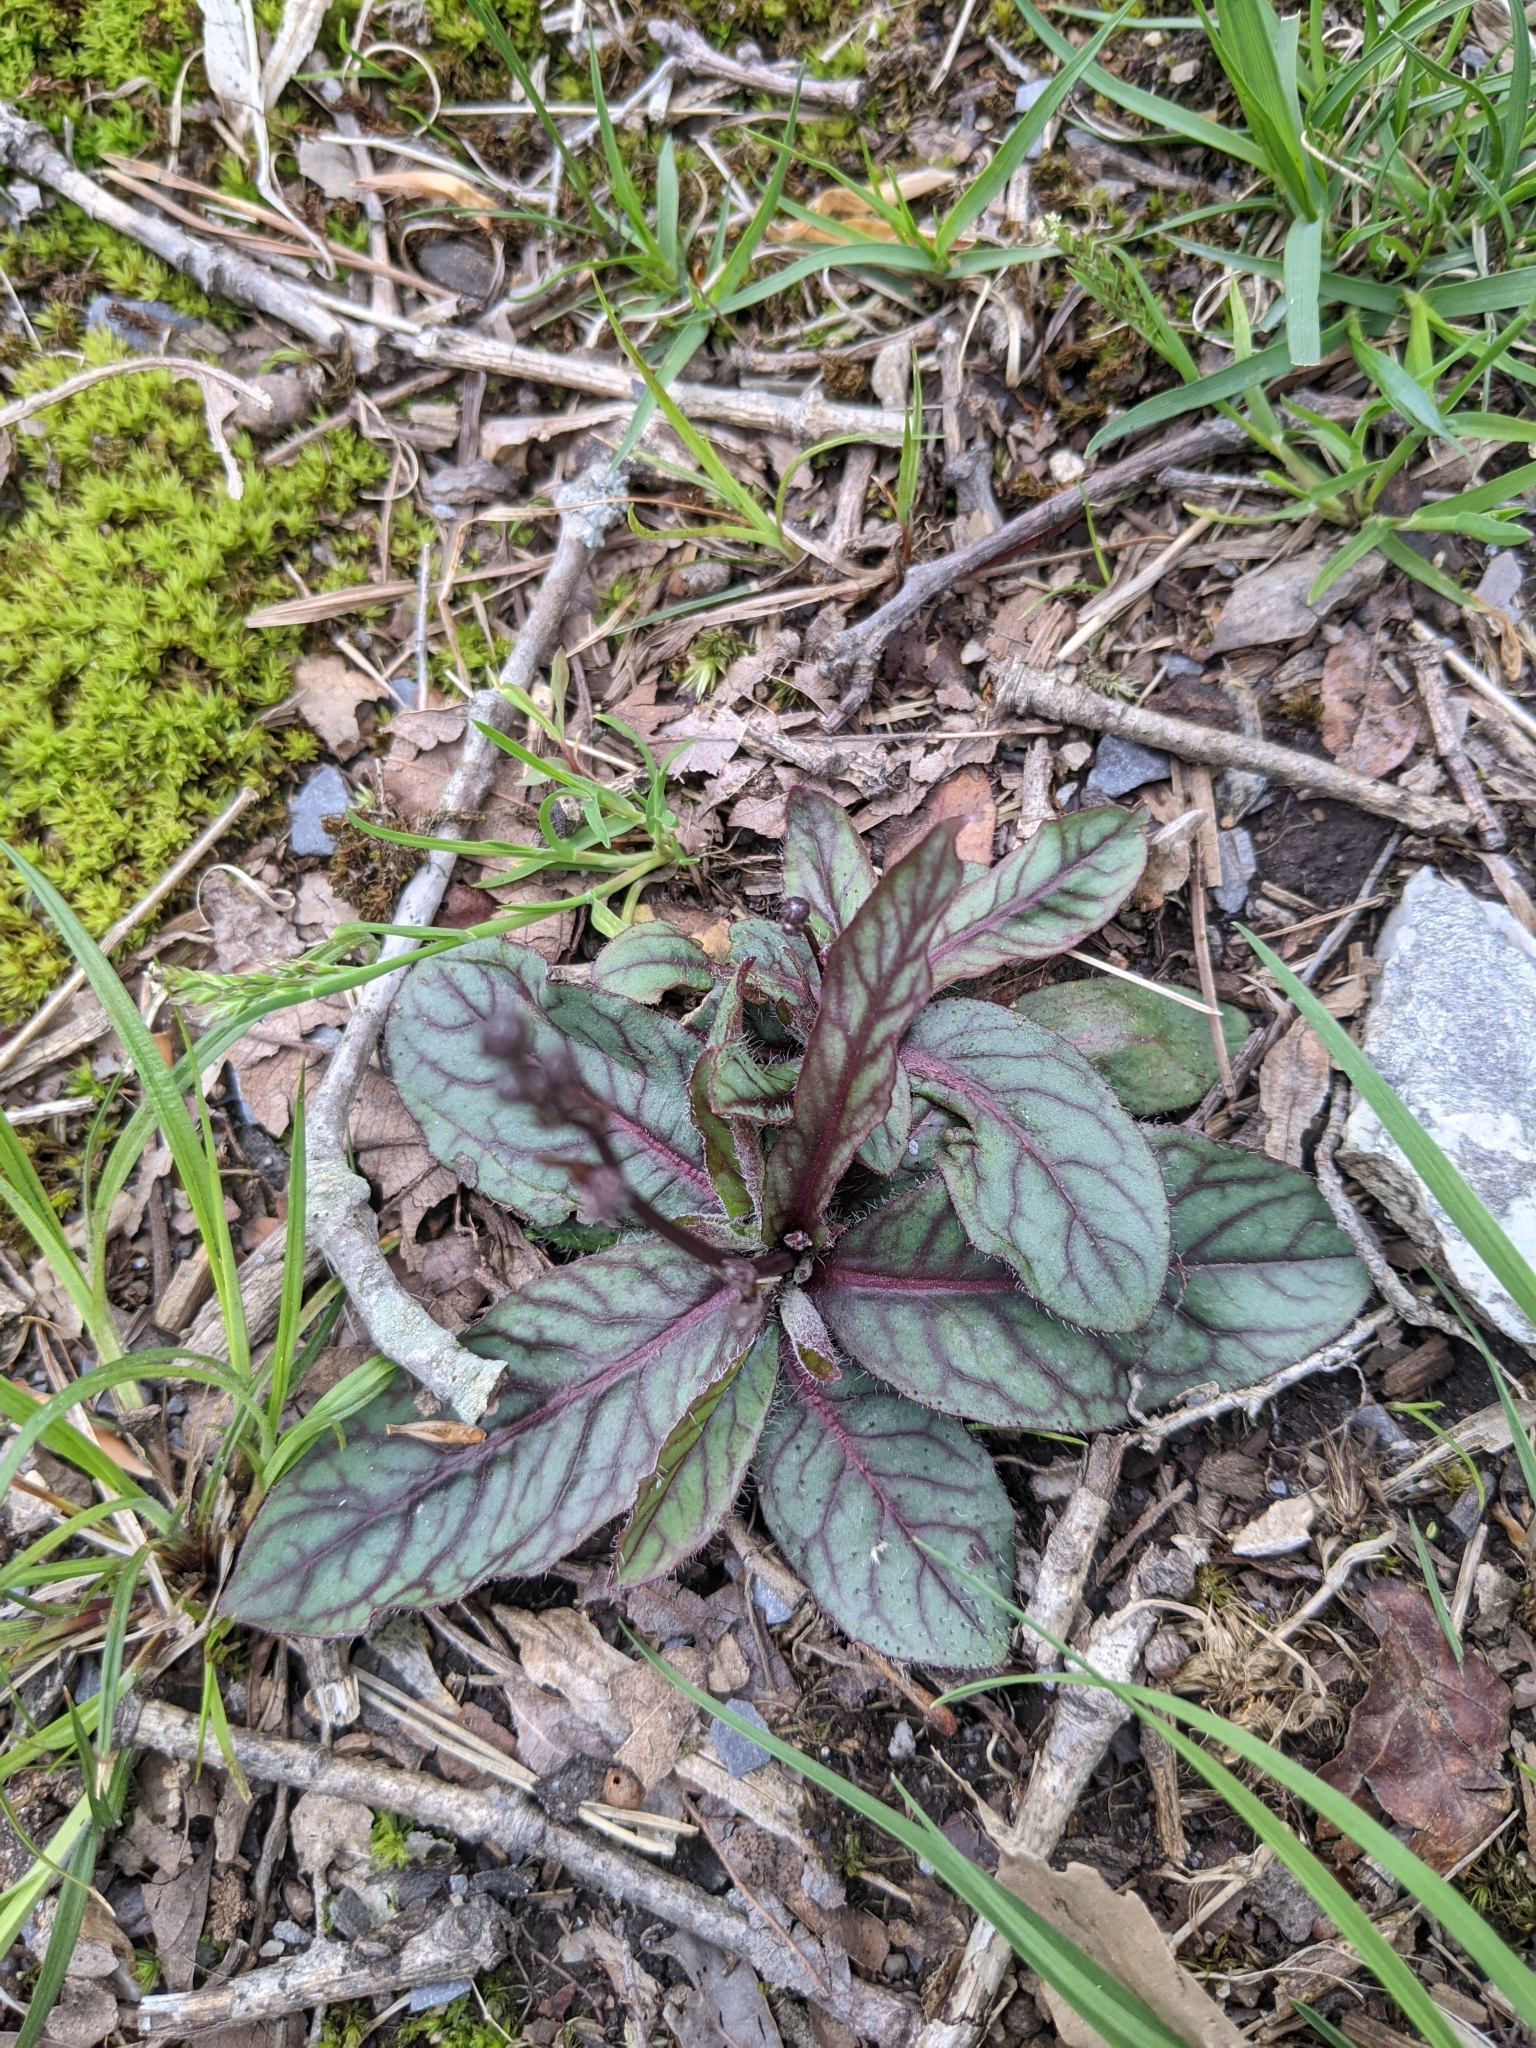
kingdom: Plantae
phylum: Tracheophyta
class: Magnoliopsida
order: Asterales
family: Asteraceae
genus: Hieracium
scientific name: Hieracium venosum
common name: Rattlesnake hawkweed
